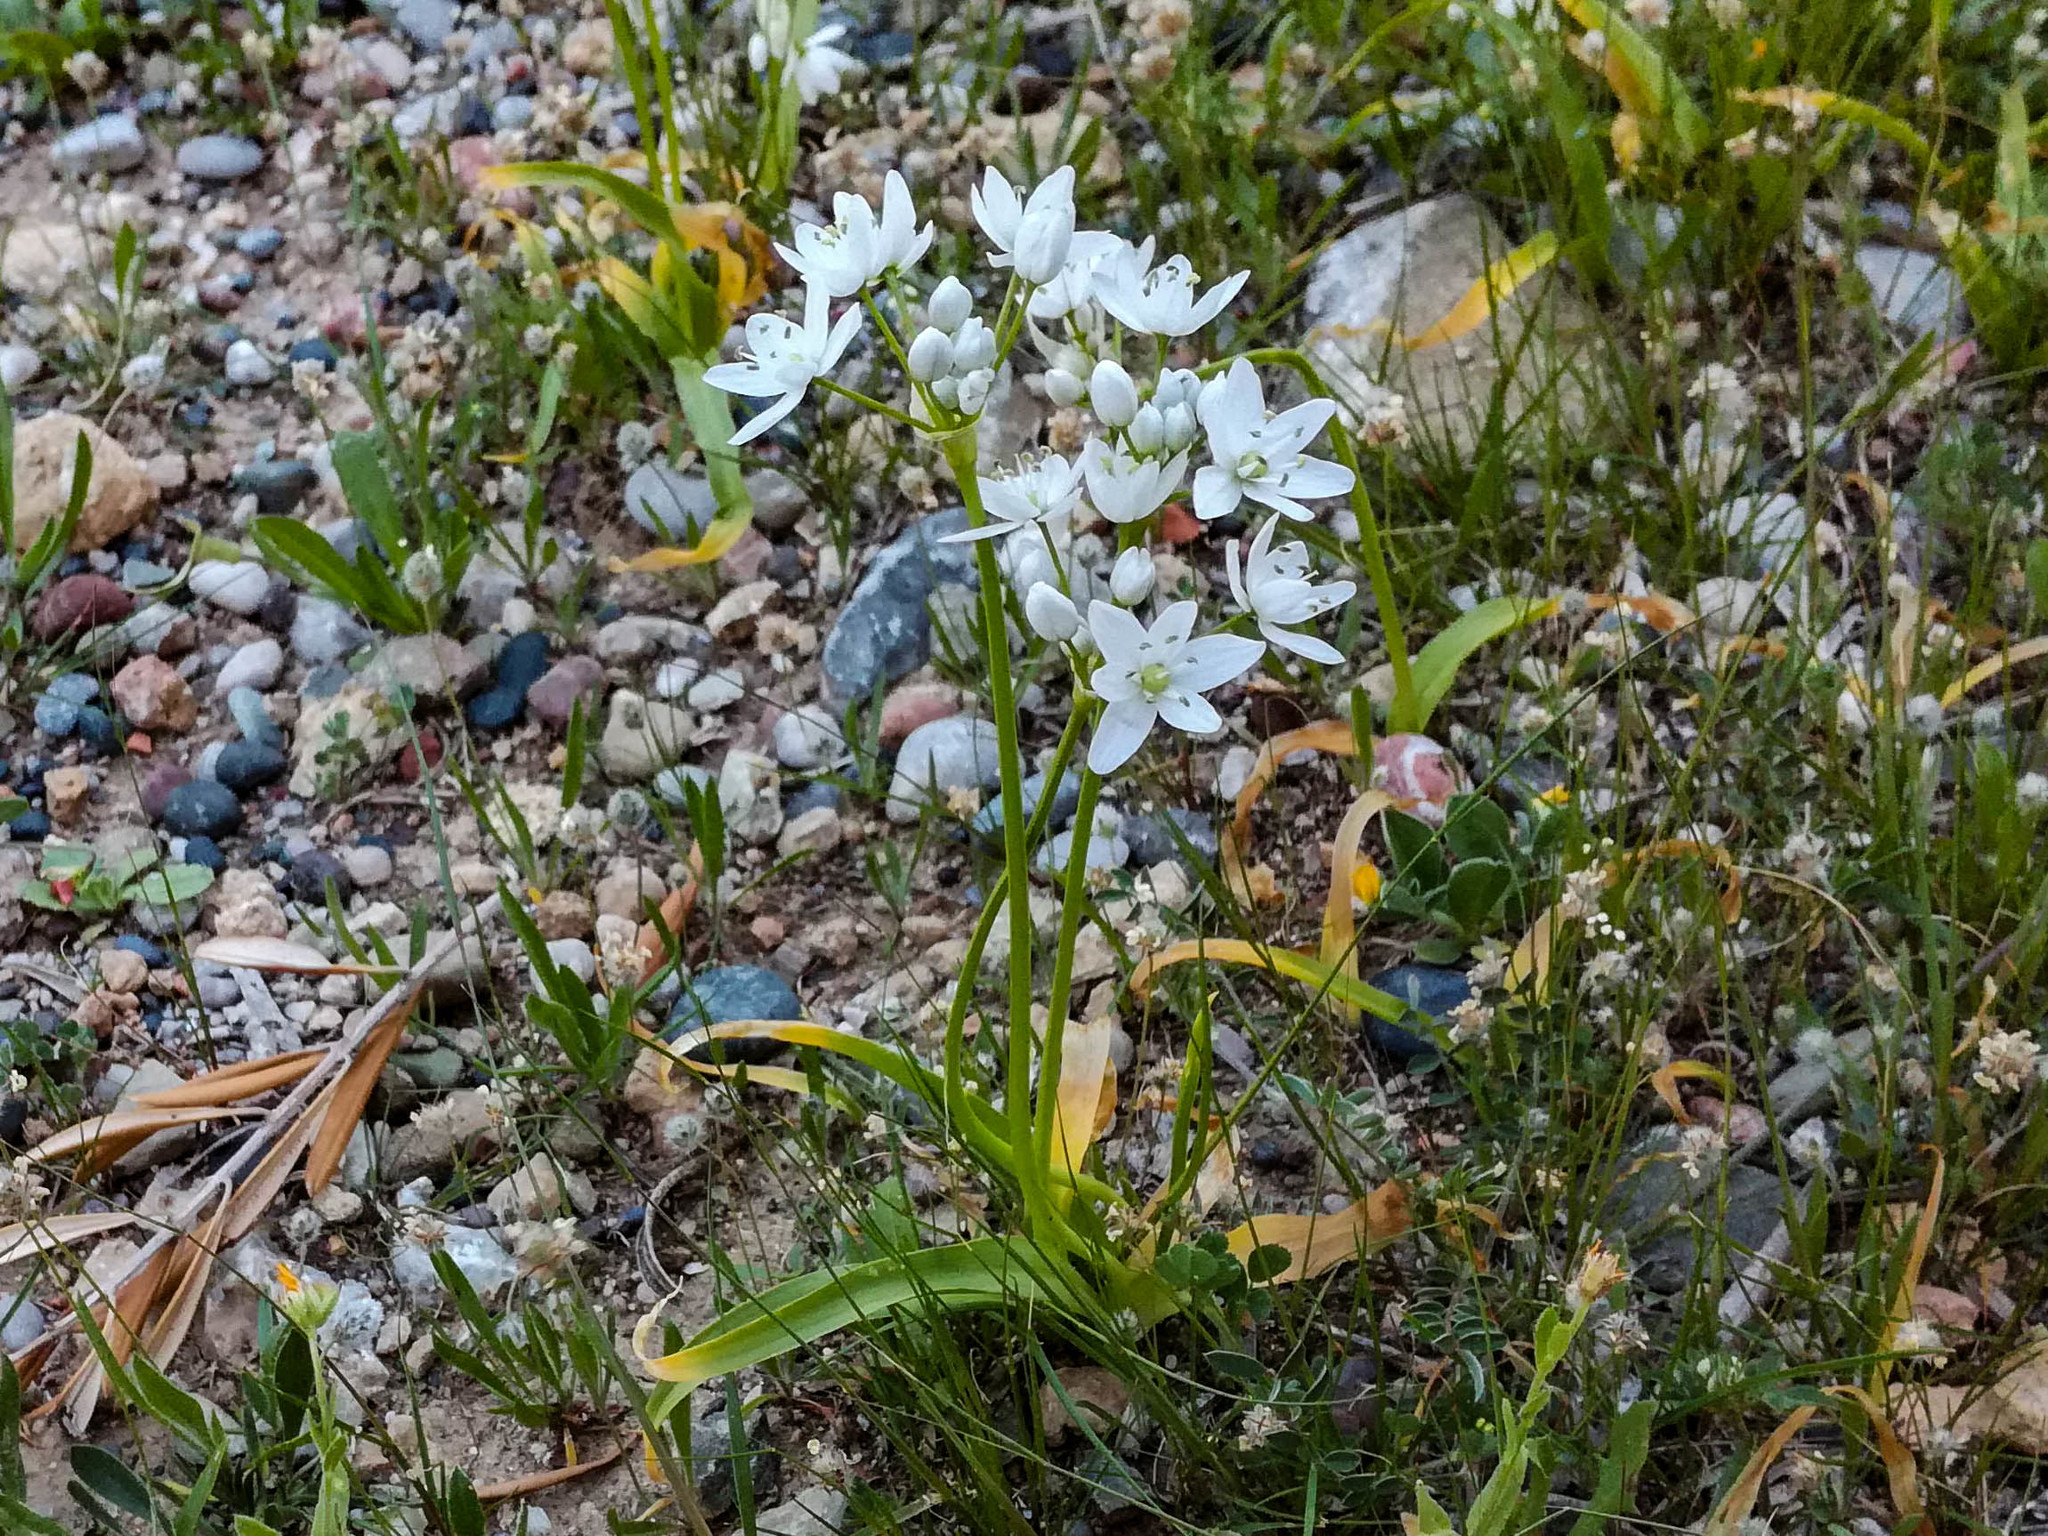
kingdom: Plantae
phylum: Tracheophyta
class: Liliopsida
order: Asparagales
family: Amaryllidaceae
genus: Allium
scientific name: Allium neapolitanum
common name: Neapolitan garlic
